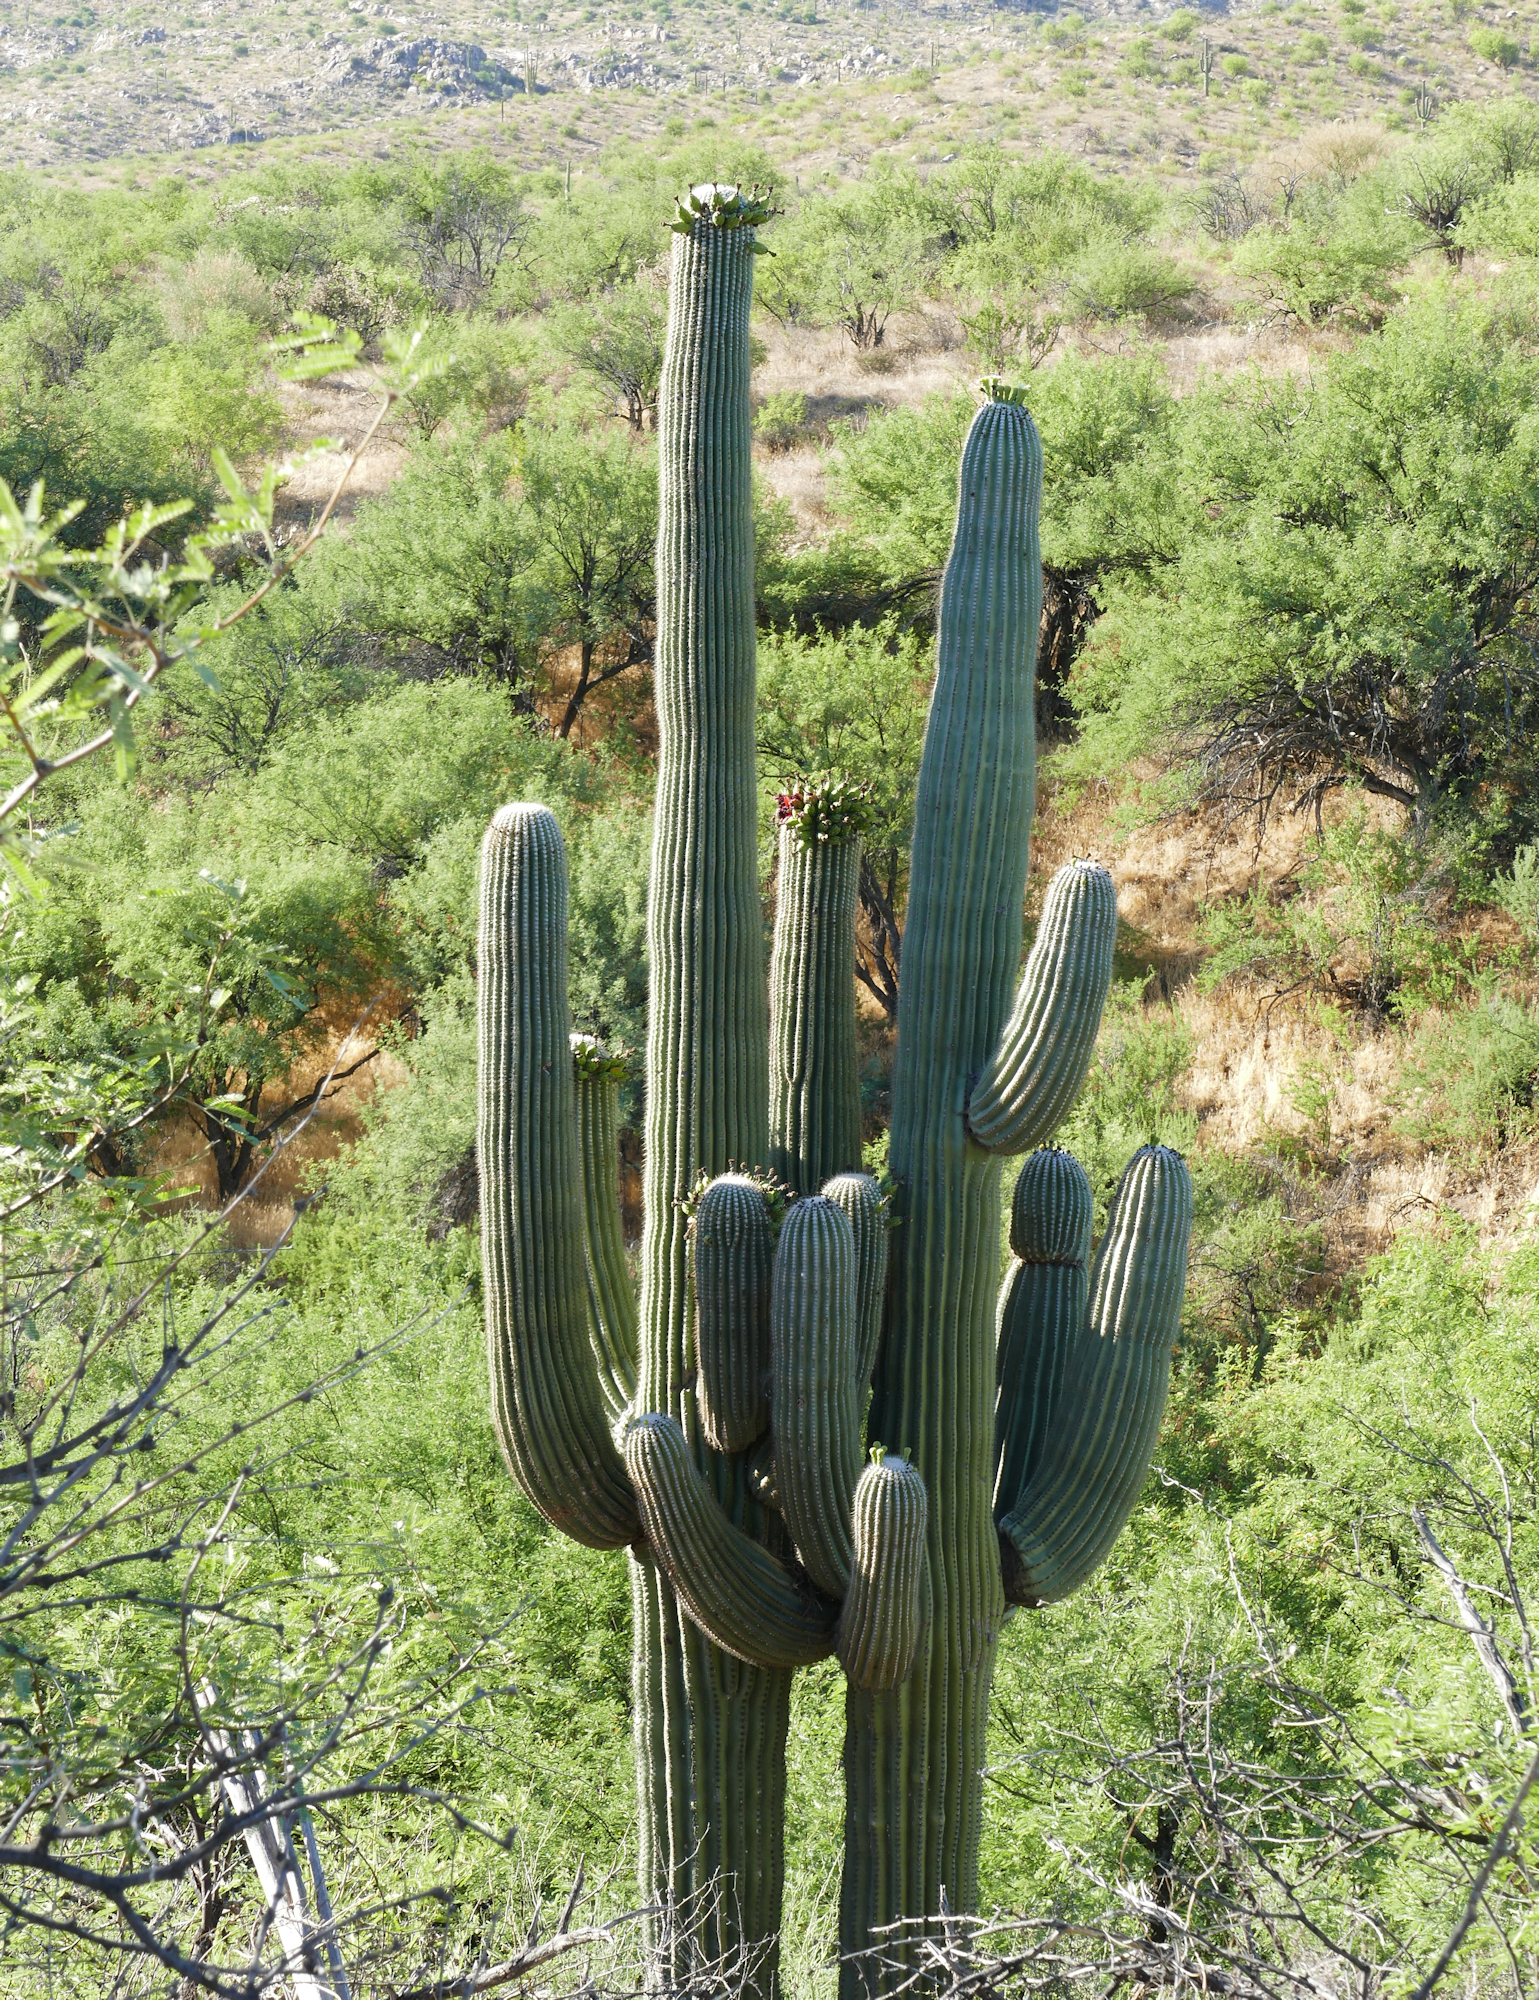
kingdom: Plantae
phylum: Tracheophyta
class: Magnoliopsida
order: Caryophyllales
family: Cactaceae
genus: Carnegiea
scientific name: Carnegiea gigantea
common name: Saguaro
